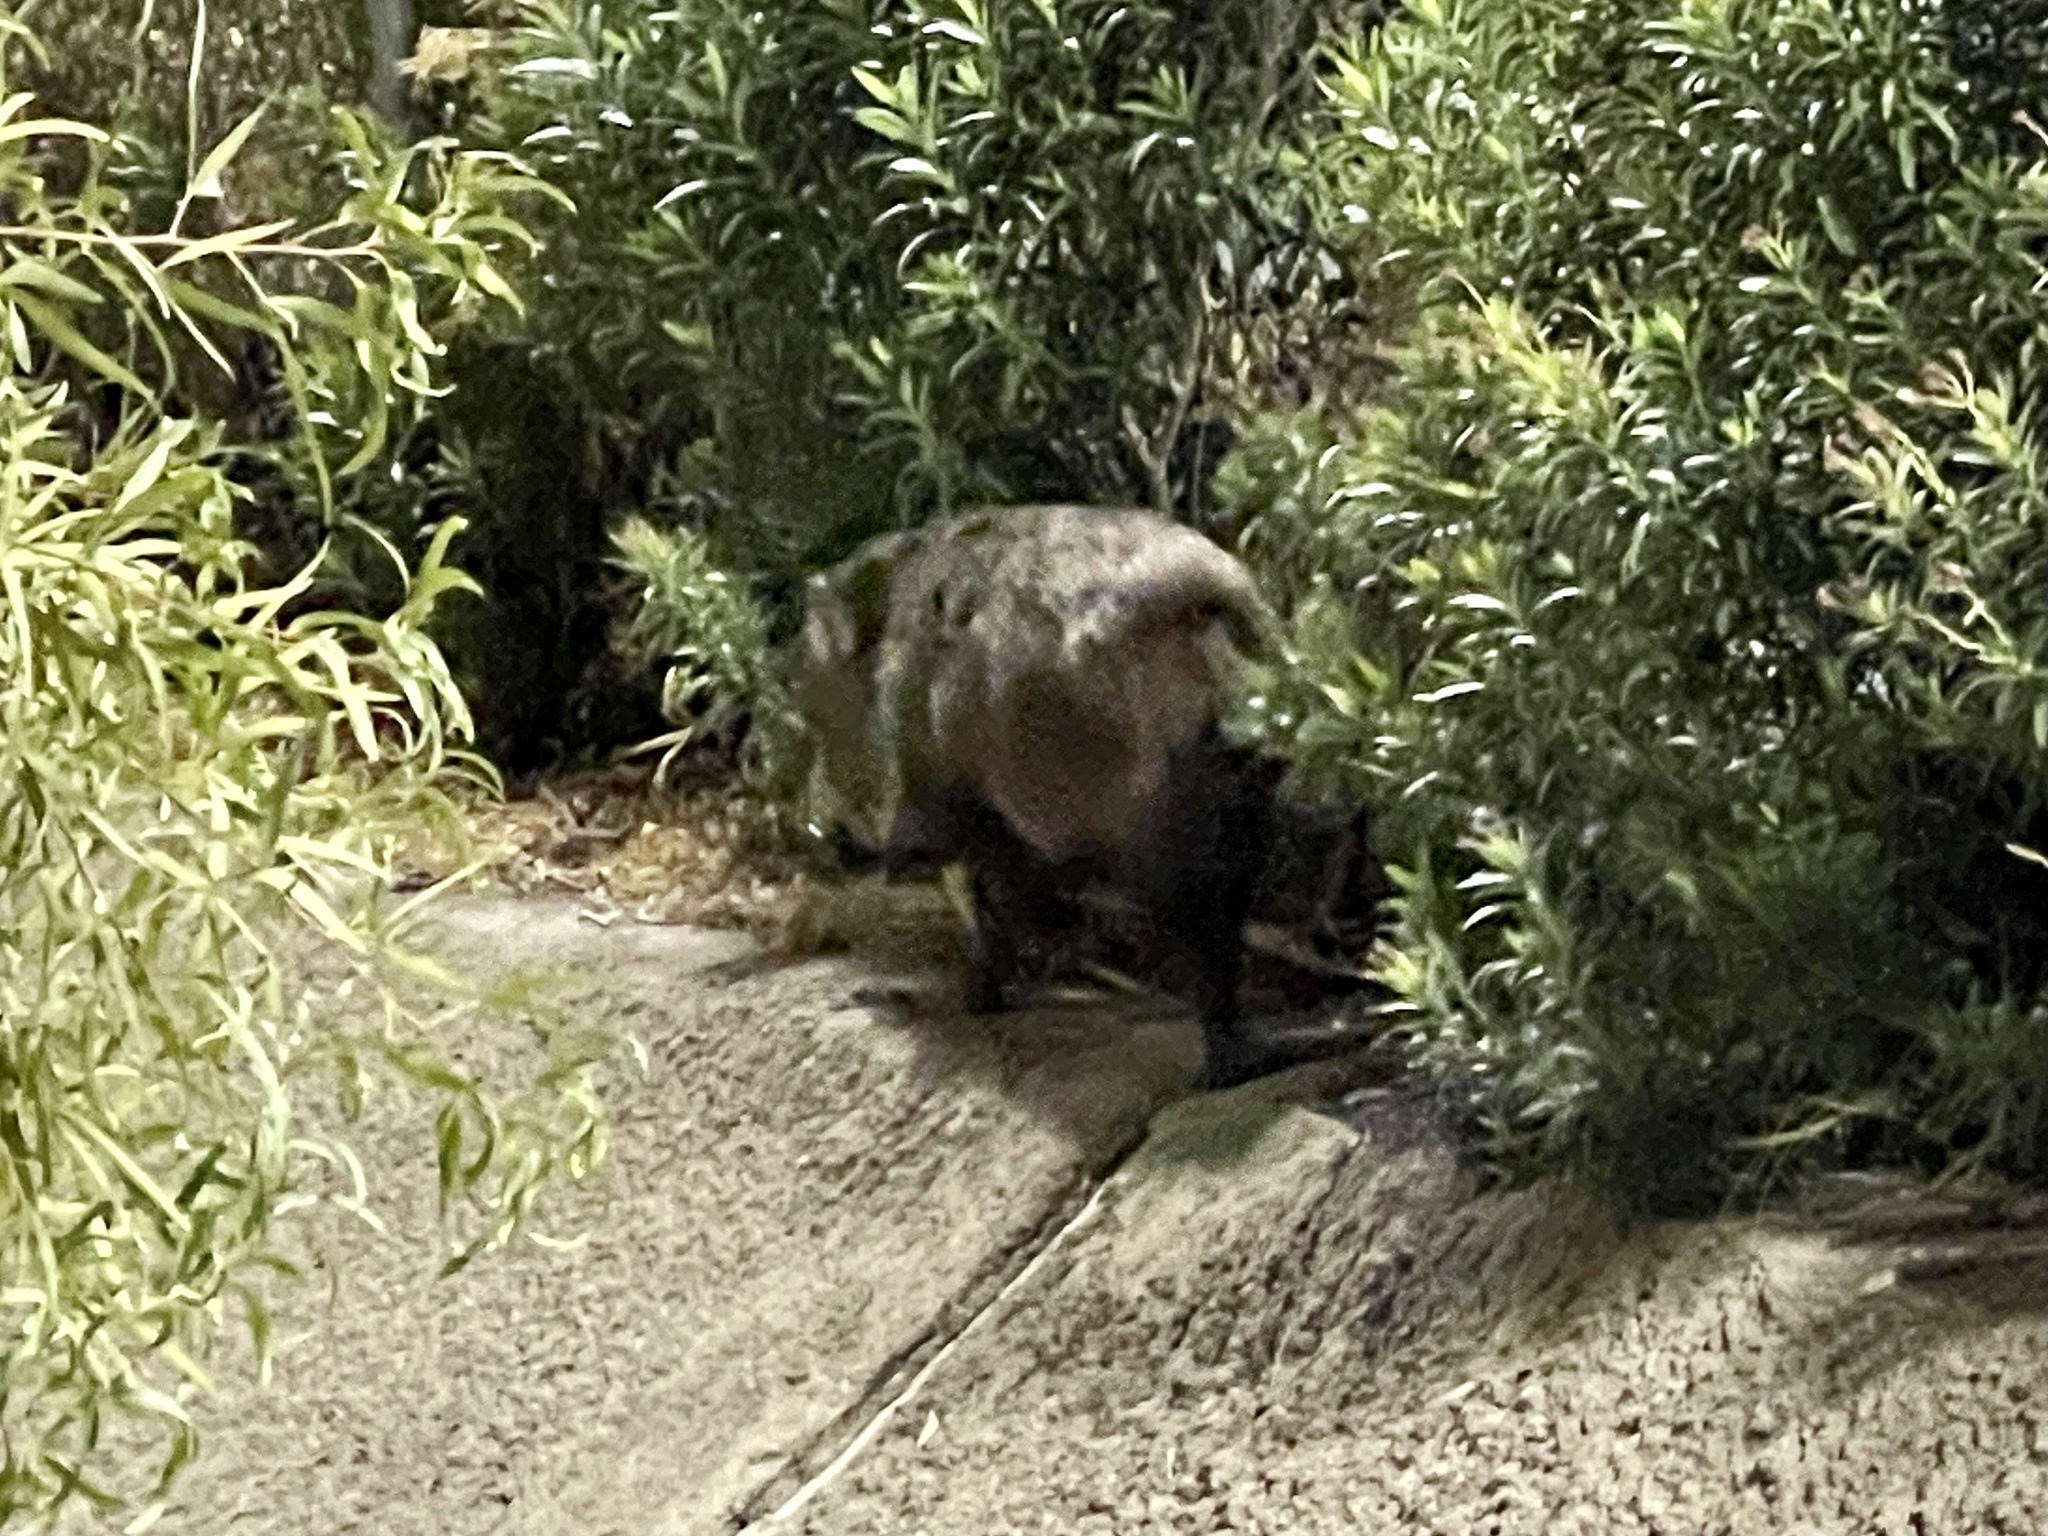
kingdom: Animalia
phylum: Chordata
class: Mammalia
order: Artiodactyla
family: Tayassuidae
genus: Pecari
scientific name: Pecari tajacu
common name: Collared peccary
